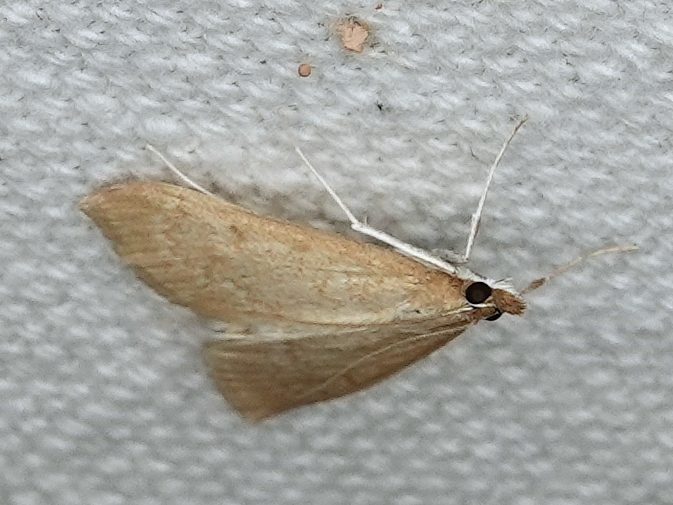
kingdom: Animalia
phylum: Arthropoda
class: Insecta
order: Lepidoptera
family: Crambidae
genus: Saucrobotys
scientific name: Saucrobotys futilalis
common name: Dogbane saucrobotys moth
